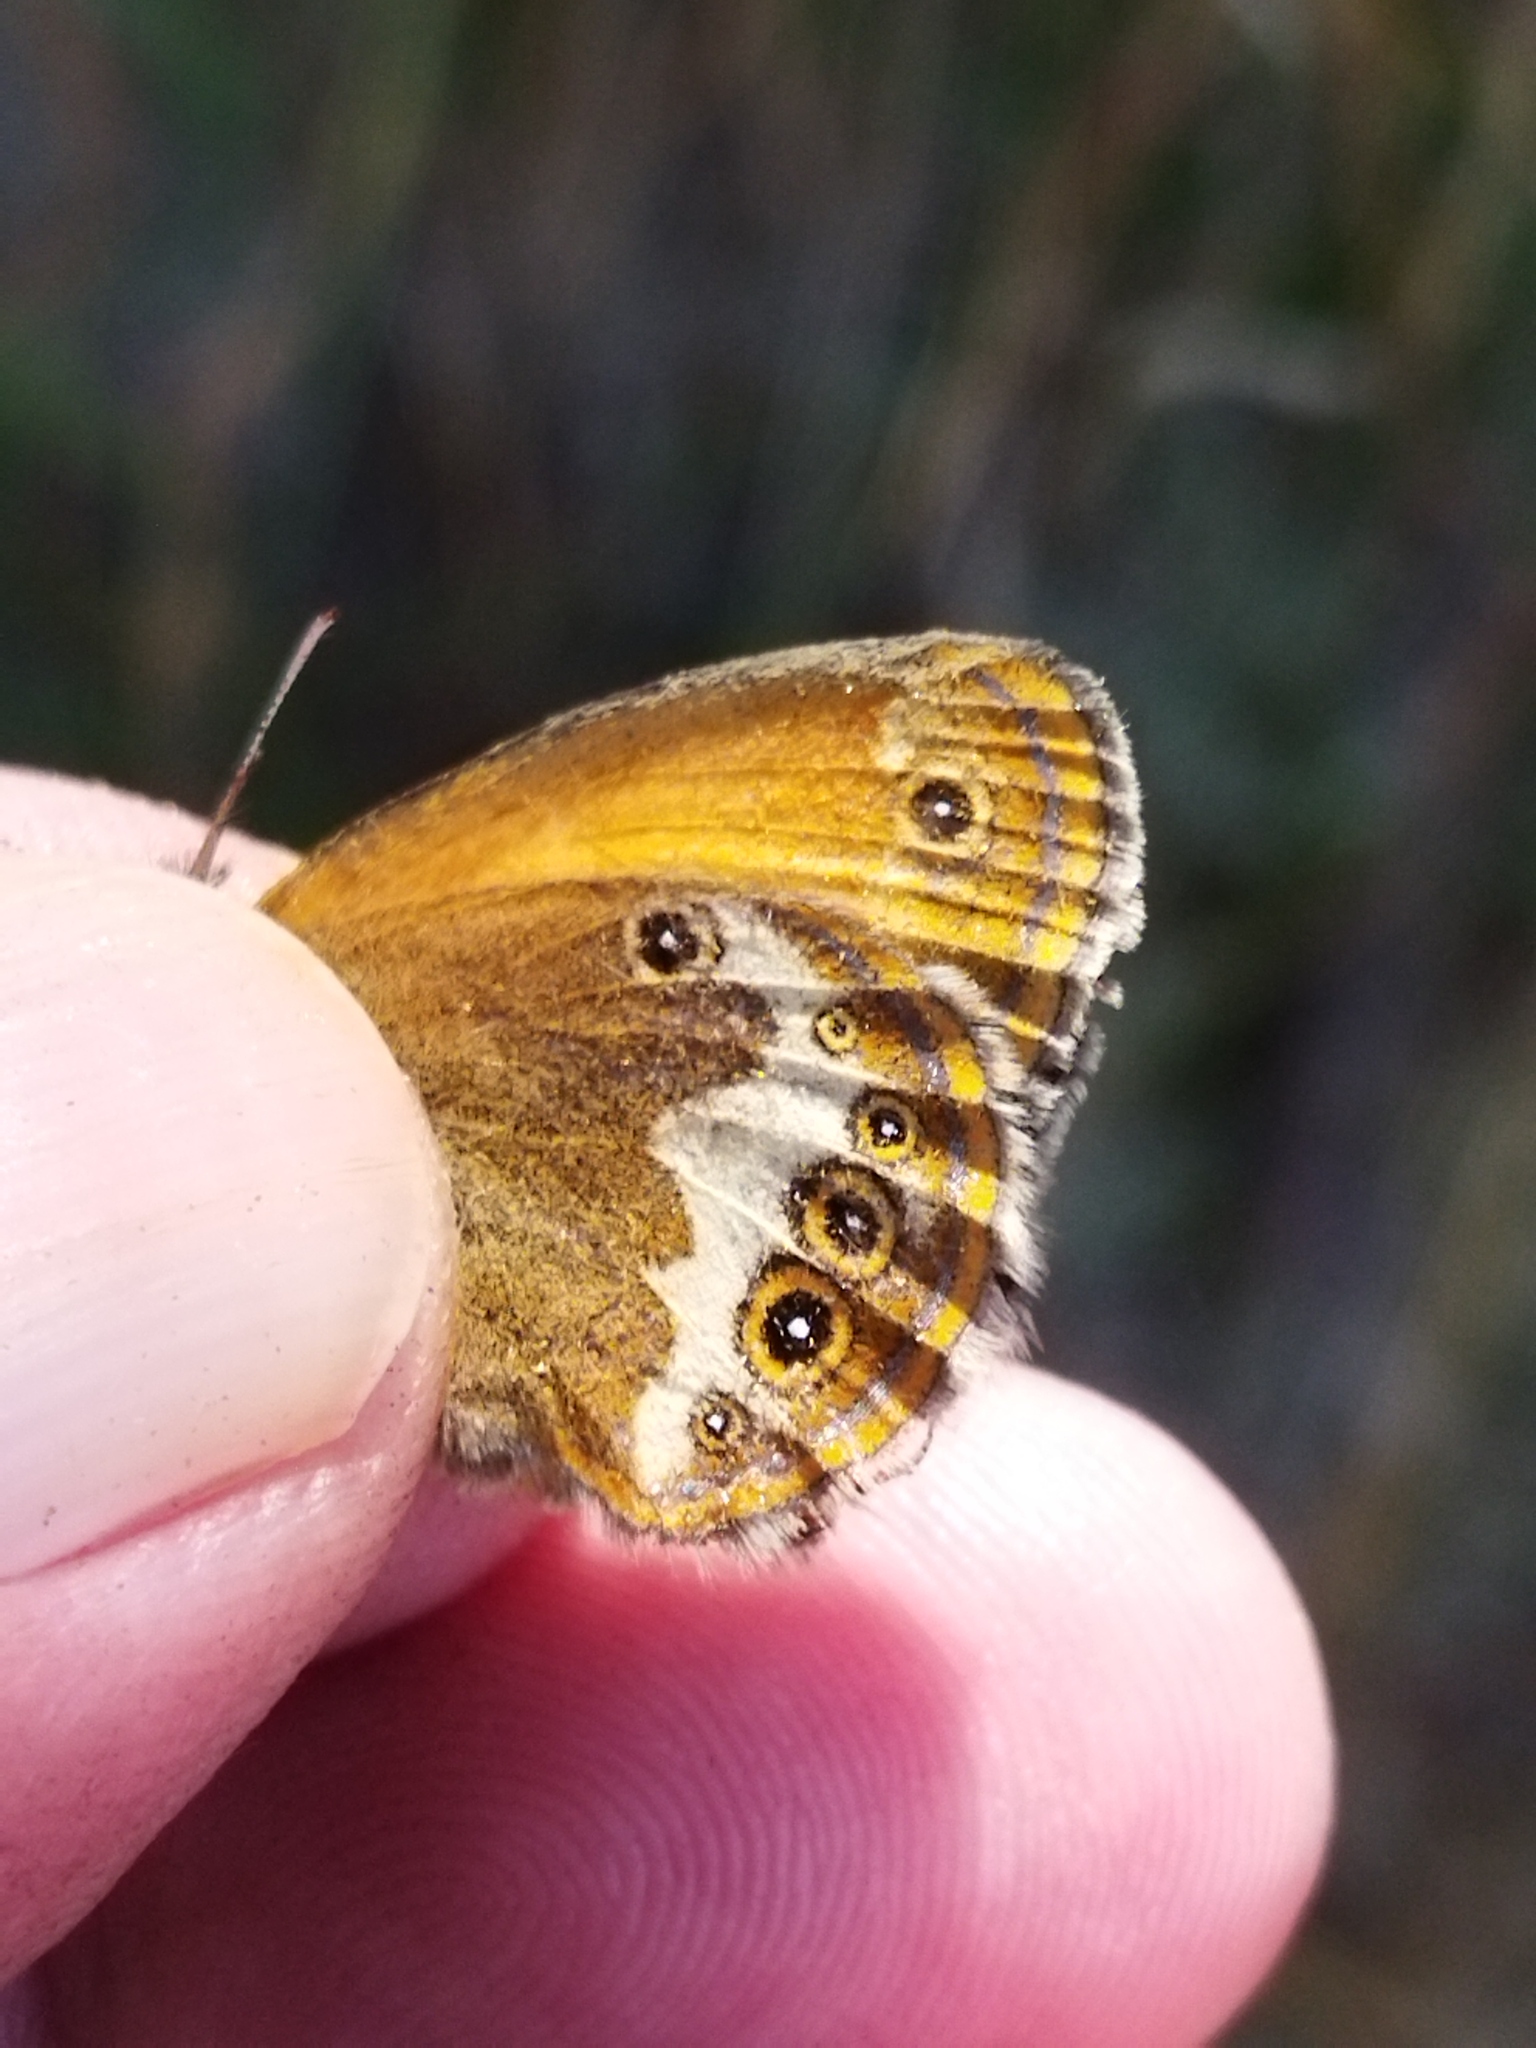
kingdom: Animalia
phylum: Arthropoda
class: Insecta
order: Lepidoptera
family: Nymphalidae
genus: Coenonympha
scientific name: Coenonympha arcania
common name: Pearly heath
